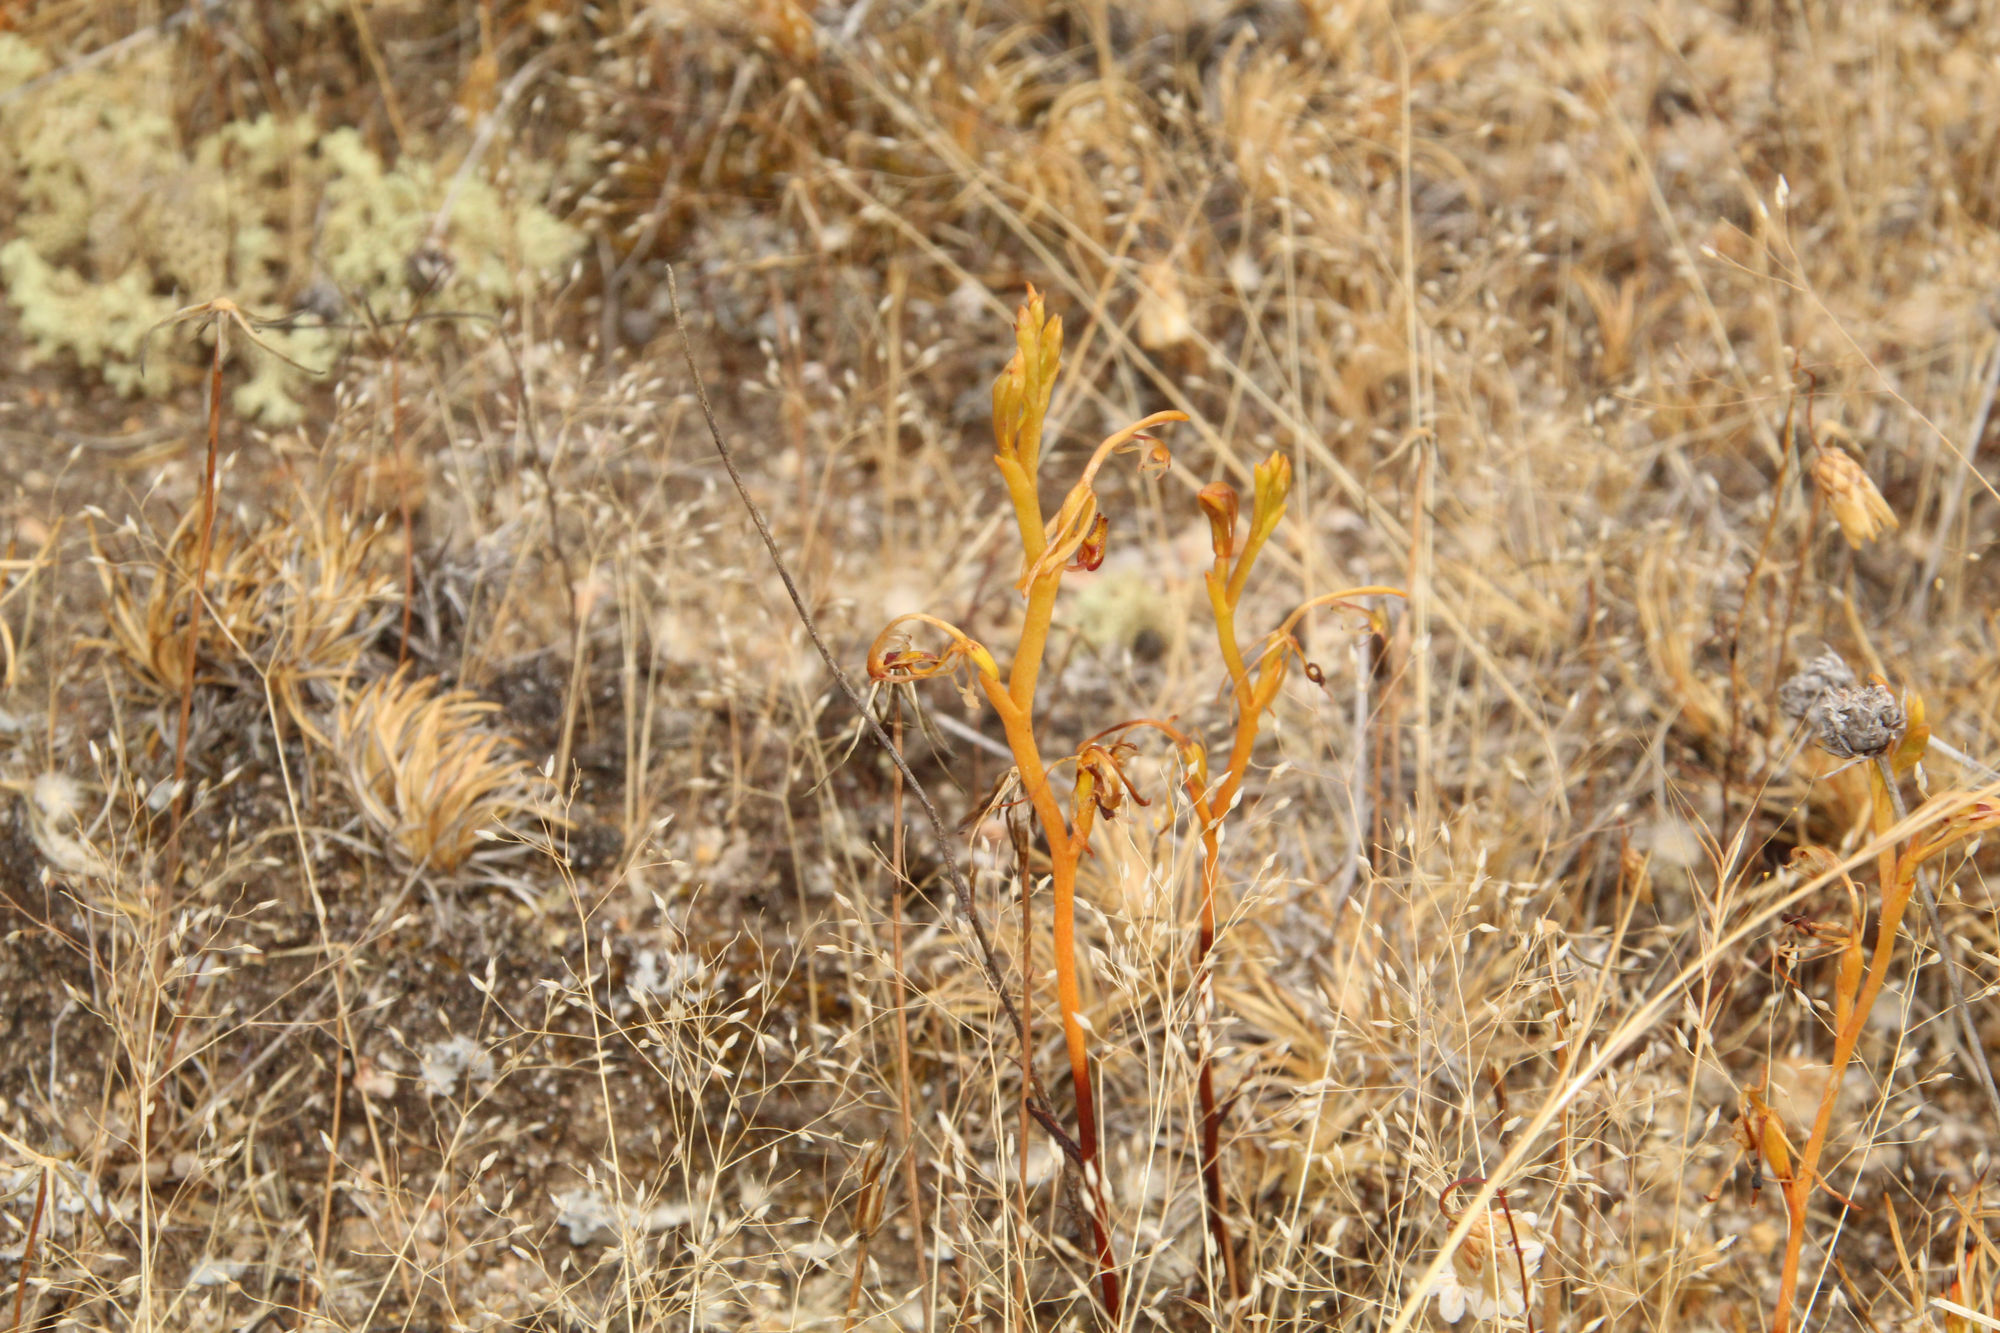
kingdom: Plantae
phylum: Tracheophyta
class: Liliopsida
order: Asparagales
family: Orchidaceae
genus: Spiculaea
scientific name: Spiculaea ciliata
